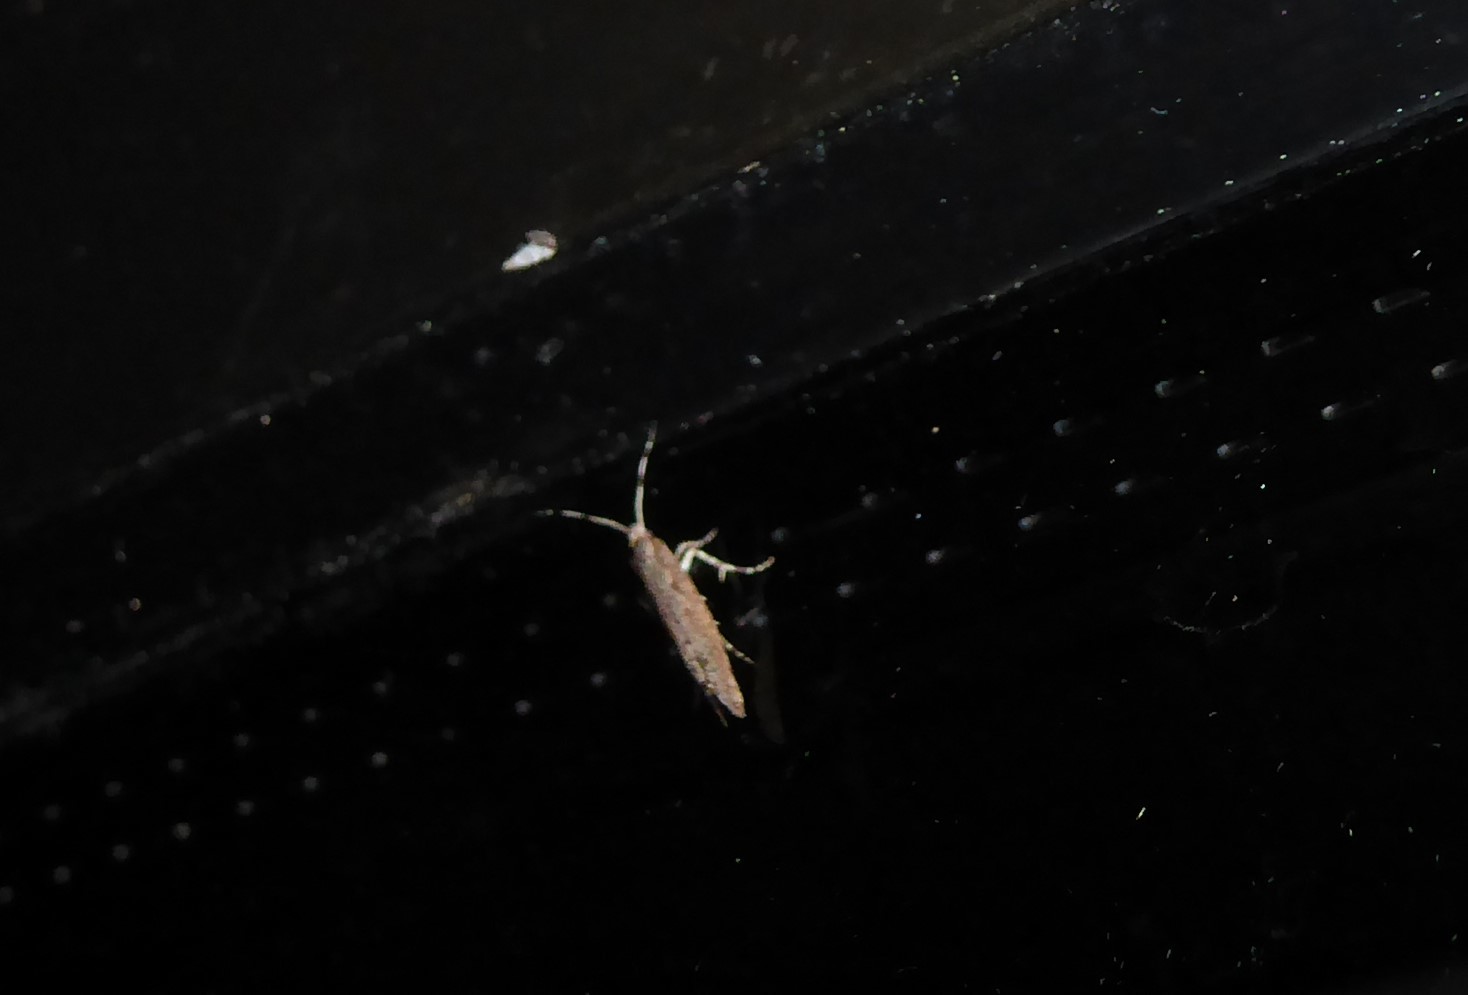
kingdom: Animalia
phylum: Arthropoda
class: Insecta
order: Lepidoptera
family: Plutellidae
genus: Plutella
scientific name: Plutella xylostella
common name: Diamond-back moth
